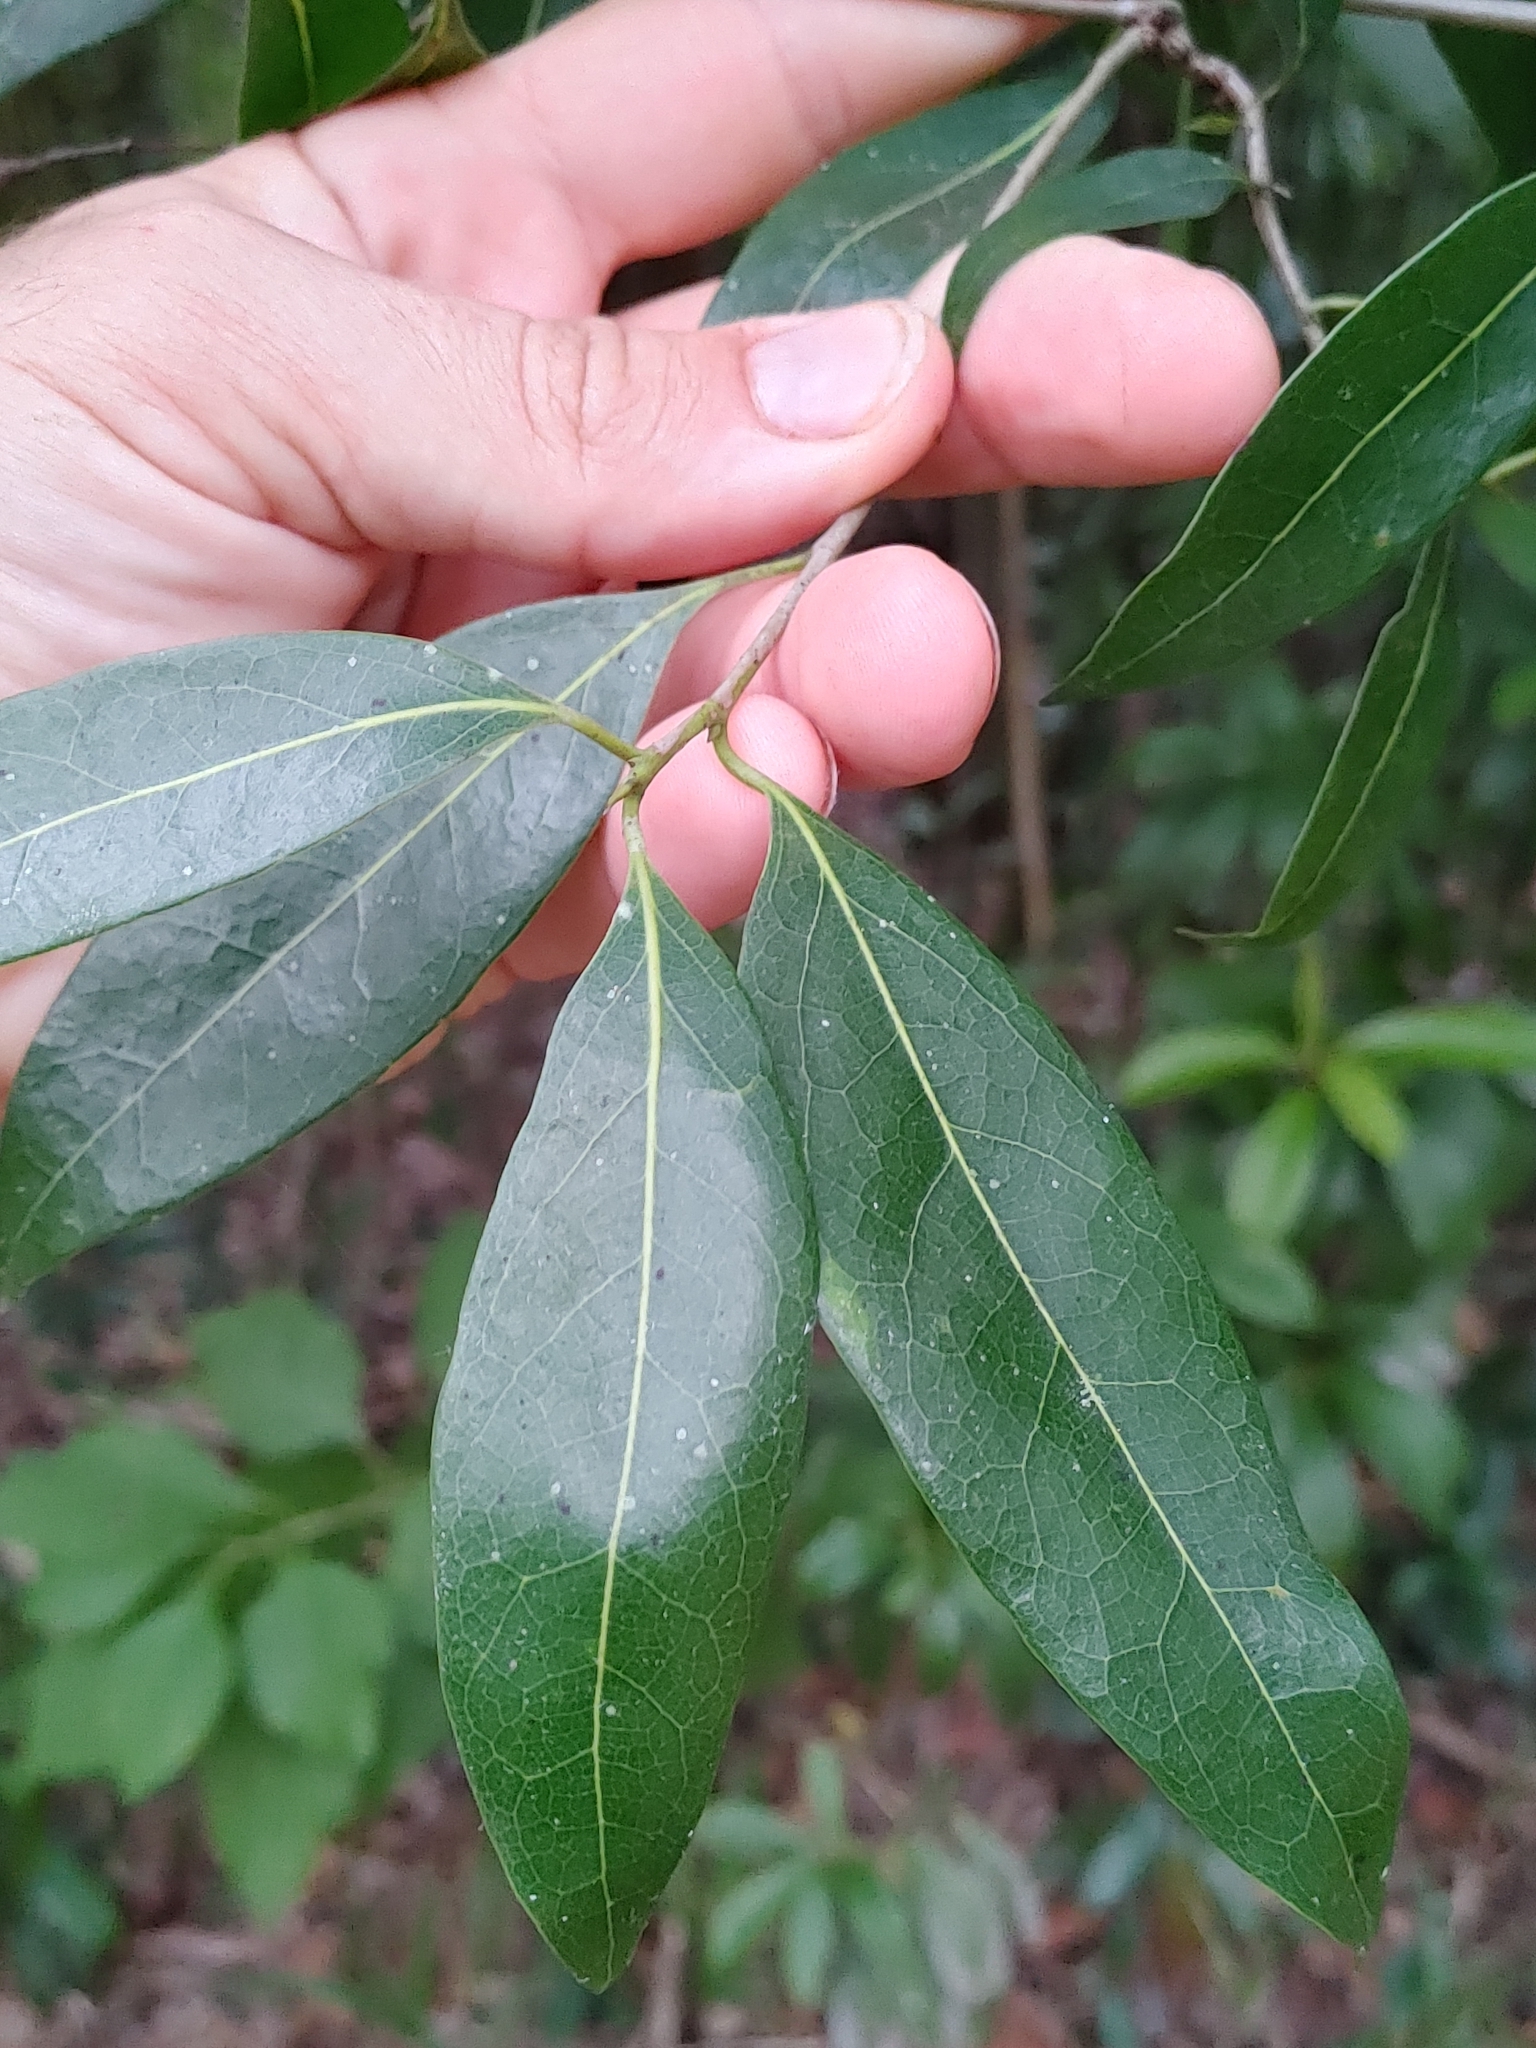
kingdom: Plantae
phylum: Tracheophyta
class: Magnoliopsida
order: Laurales
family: Lauraceae
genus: Damburneya
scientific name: Damburneya coriacea
